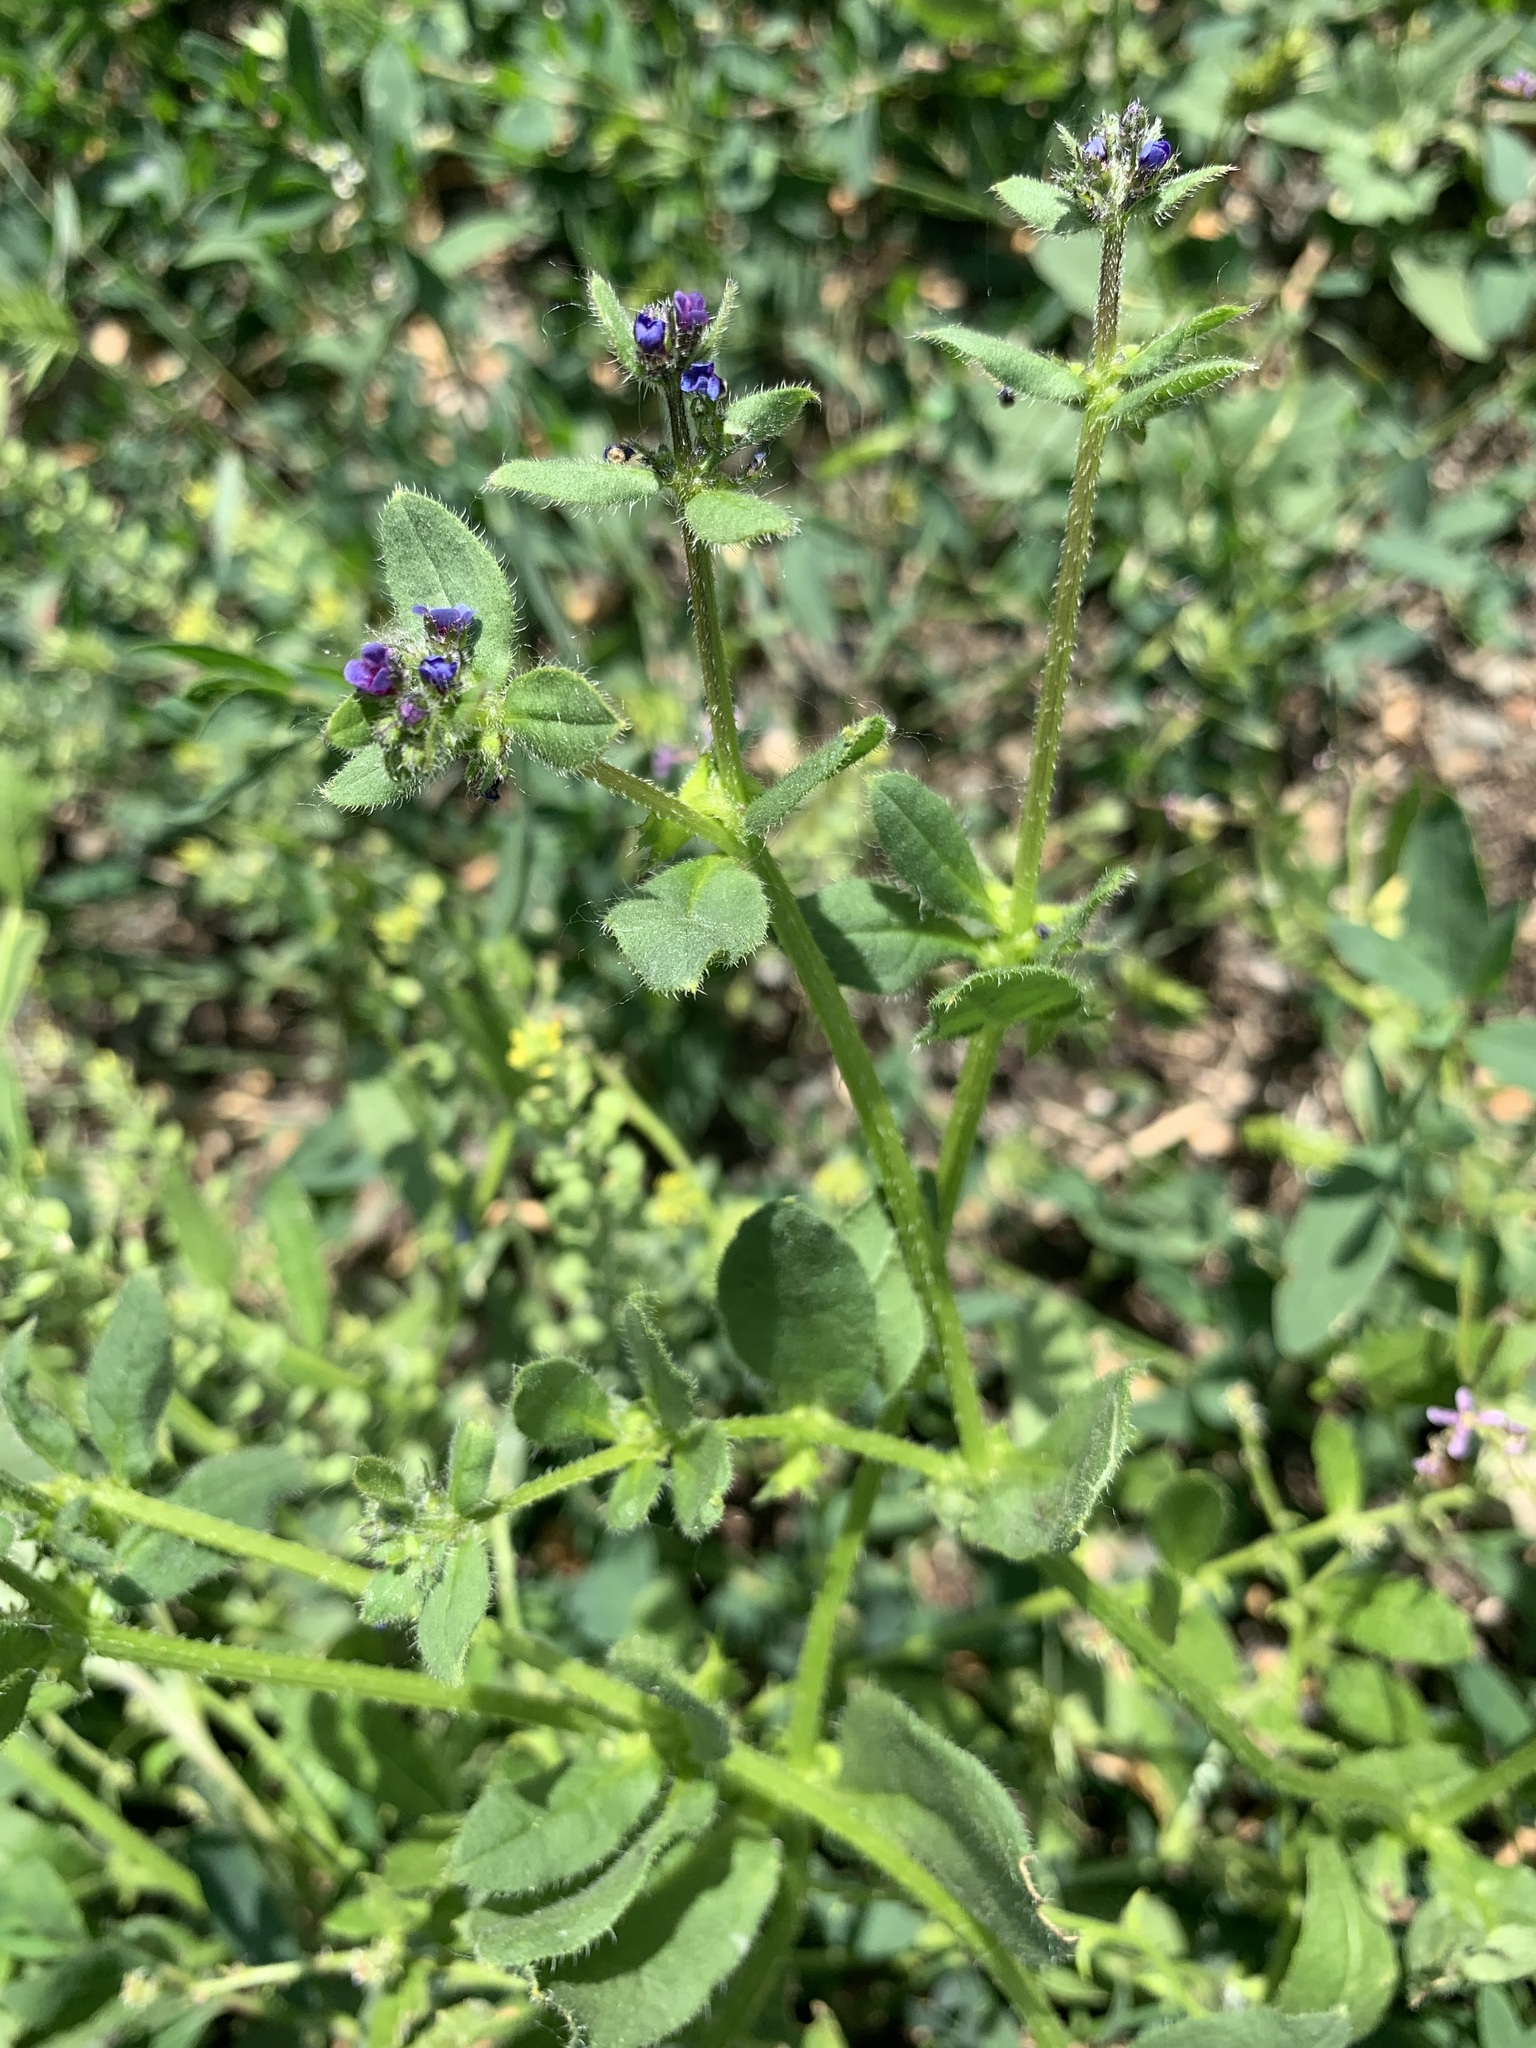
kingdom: Plantae
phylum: Tracheophyta
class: Magnoliopsida
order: Boraginales
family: Boraginaceae
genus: Asperugo
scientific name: Asperugo procumbens
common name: Madwort
